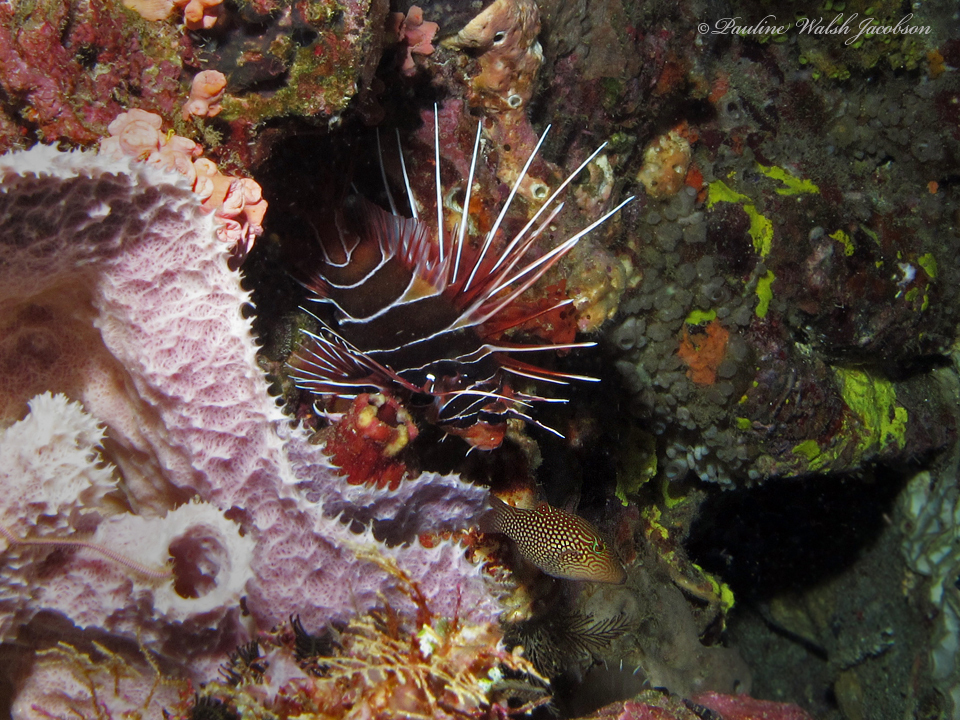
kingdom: Animalia
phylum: Chordata
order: Tetraodontiformes
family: Tetraodontidae
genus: Canthigaster
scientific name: Canthigaster janthinoptera
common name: Honeycomb toby
